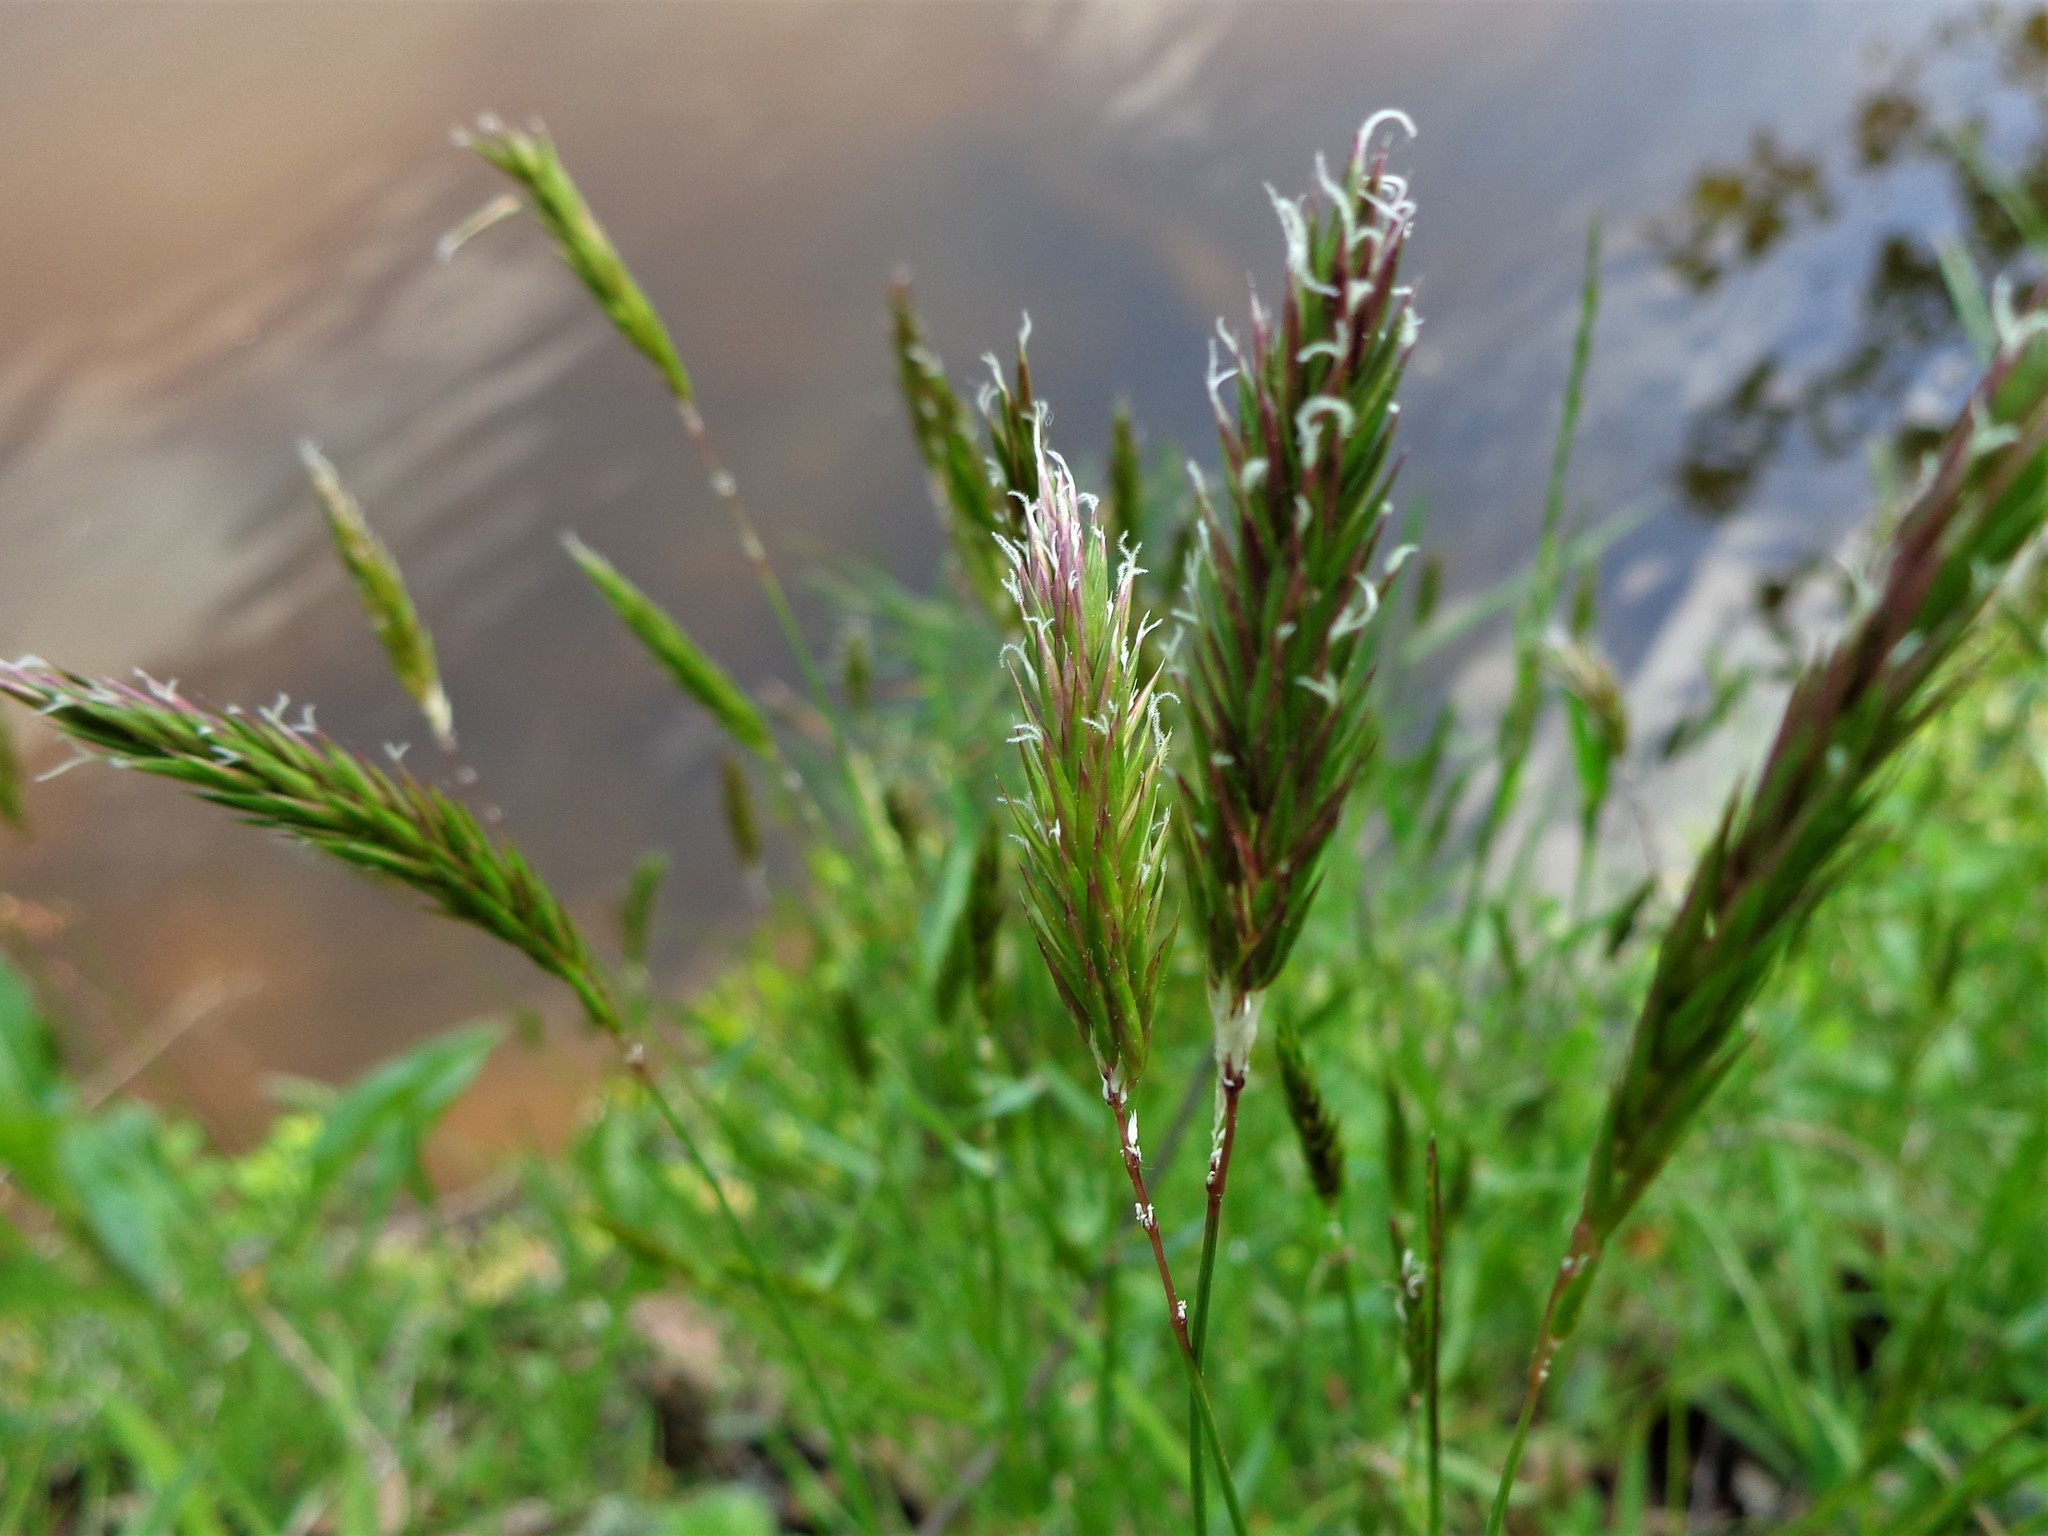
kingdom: Plantae
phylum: Tracheophyta
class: Liliopsida
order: Poales
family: Poaceae
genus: Anthoxanthum
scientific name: Anthoxanthum odoratum
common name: Sweet vernalgrass
